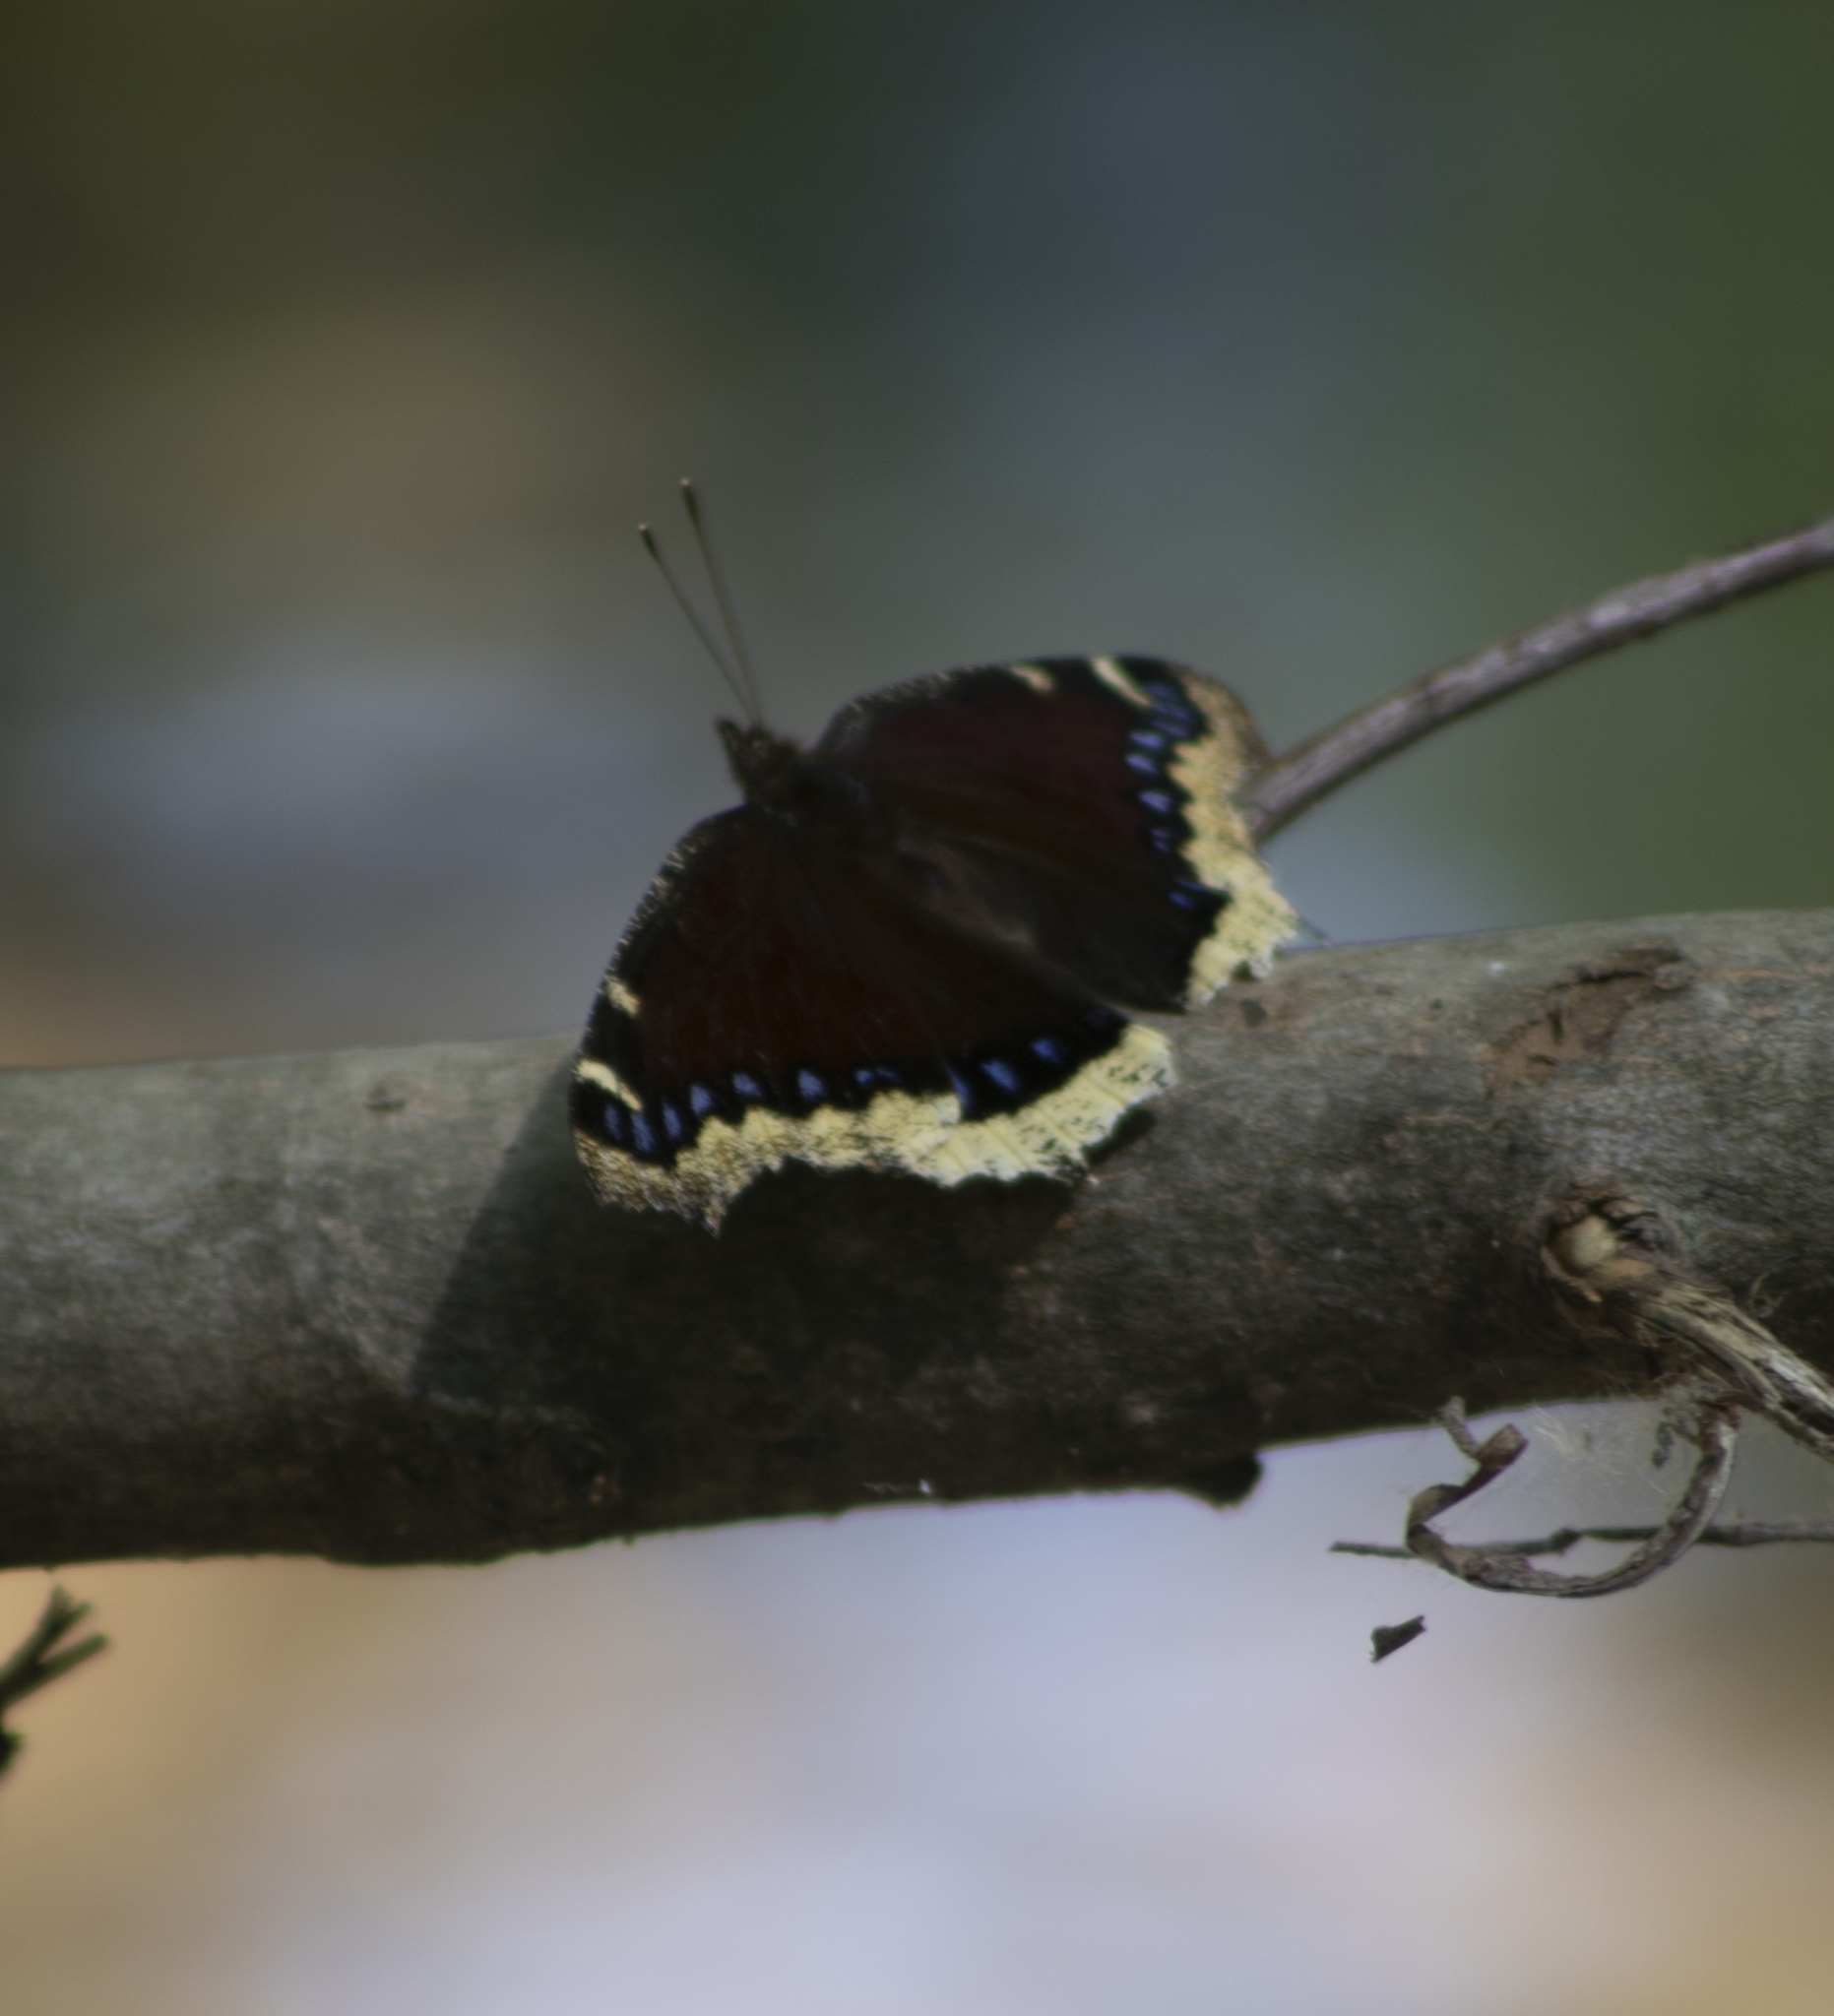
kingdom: Animalia
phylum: Arthropoda
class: Insecta
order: Lepidoptera
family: Nymphalidae
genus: Nymphalis
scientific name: Nymphalis antiopa
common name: Camberwell beauty
